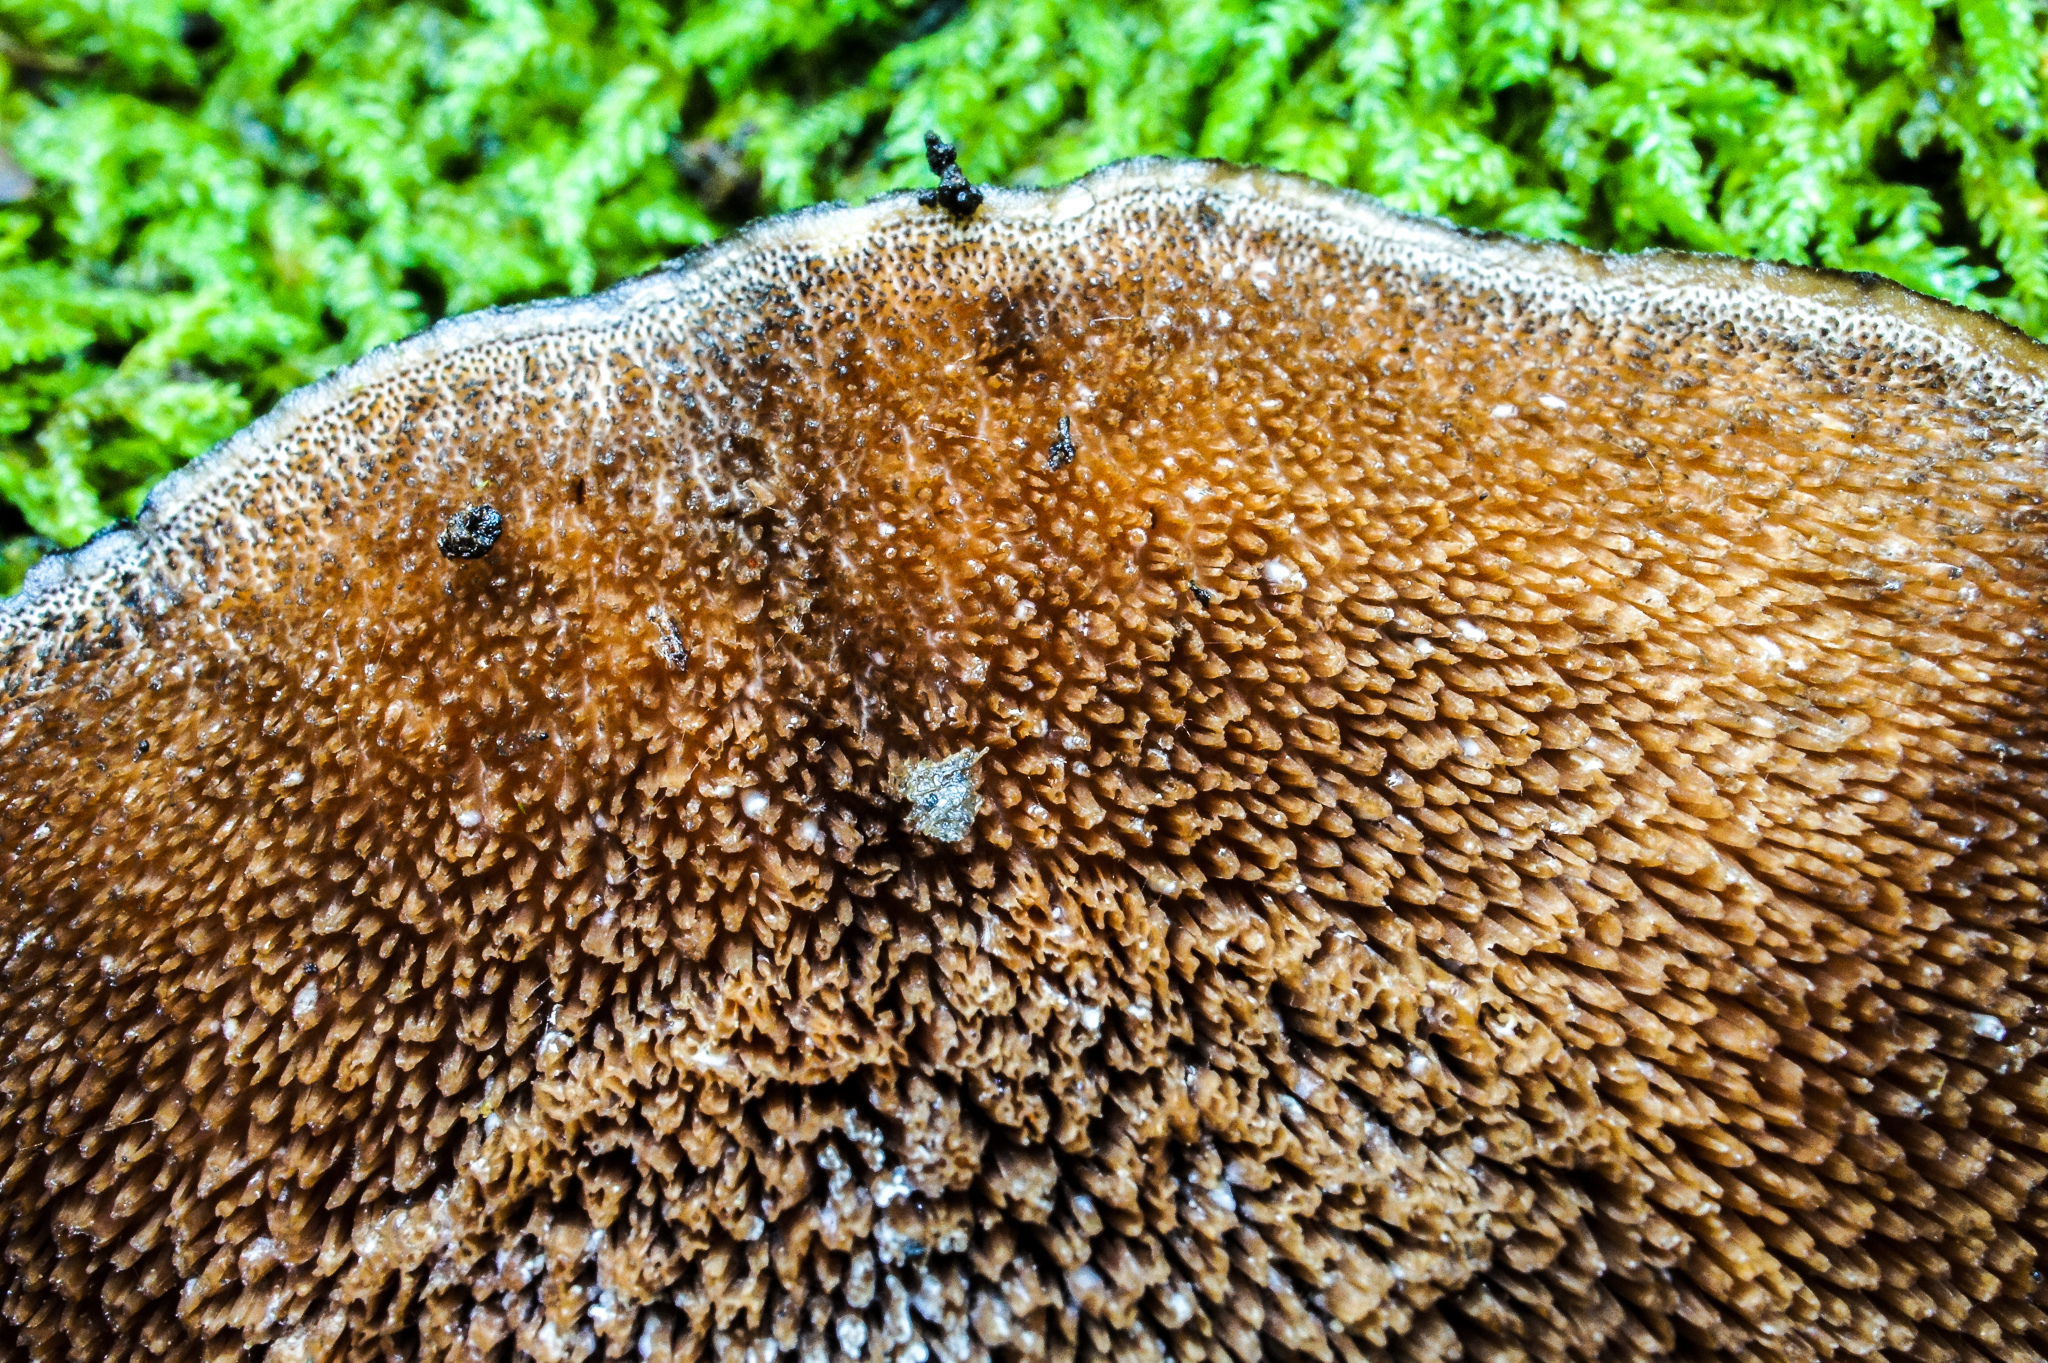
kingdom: Fungi
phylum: Basidiomycota
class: Agaricomycetes
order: Polyporales
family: Steccherinaceae
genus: Mycorrhaphium
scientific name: Mycorrhaphium adustum
